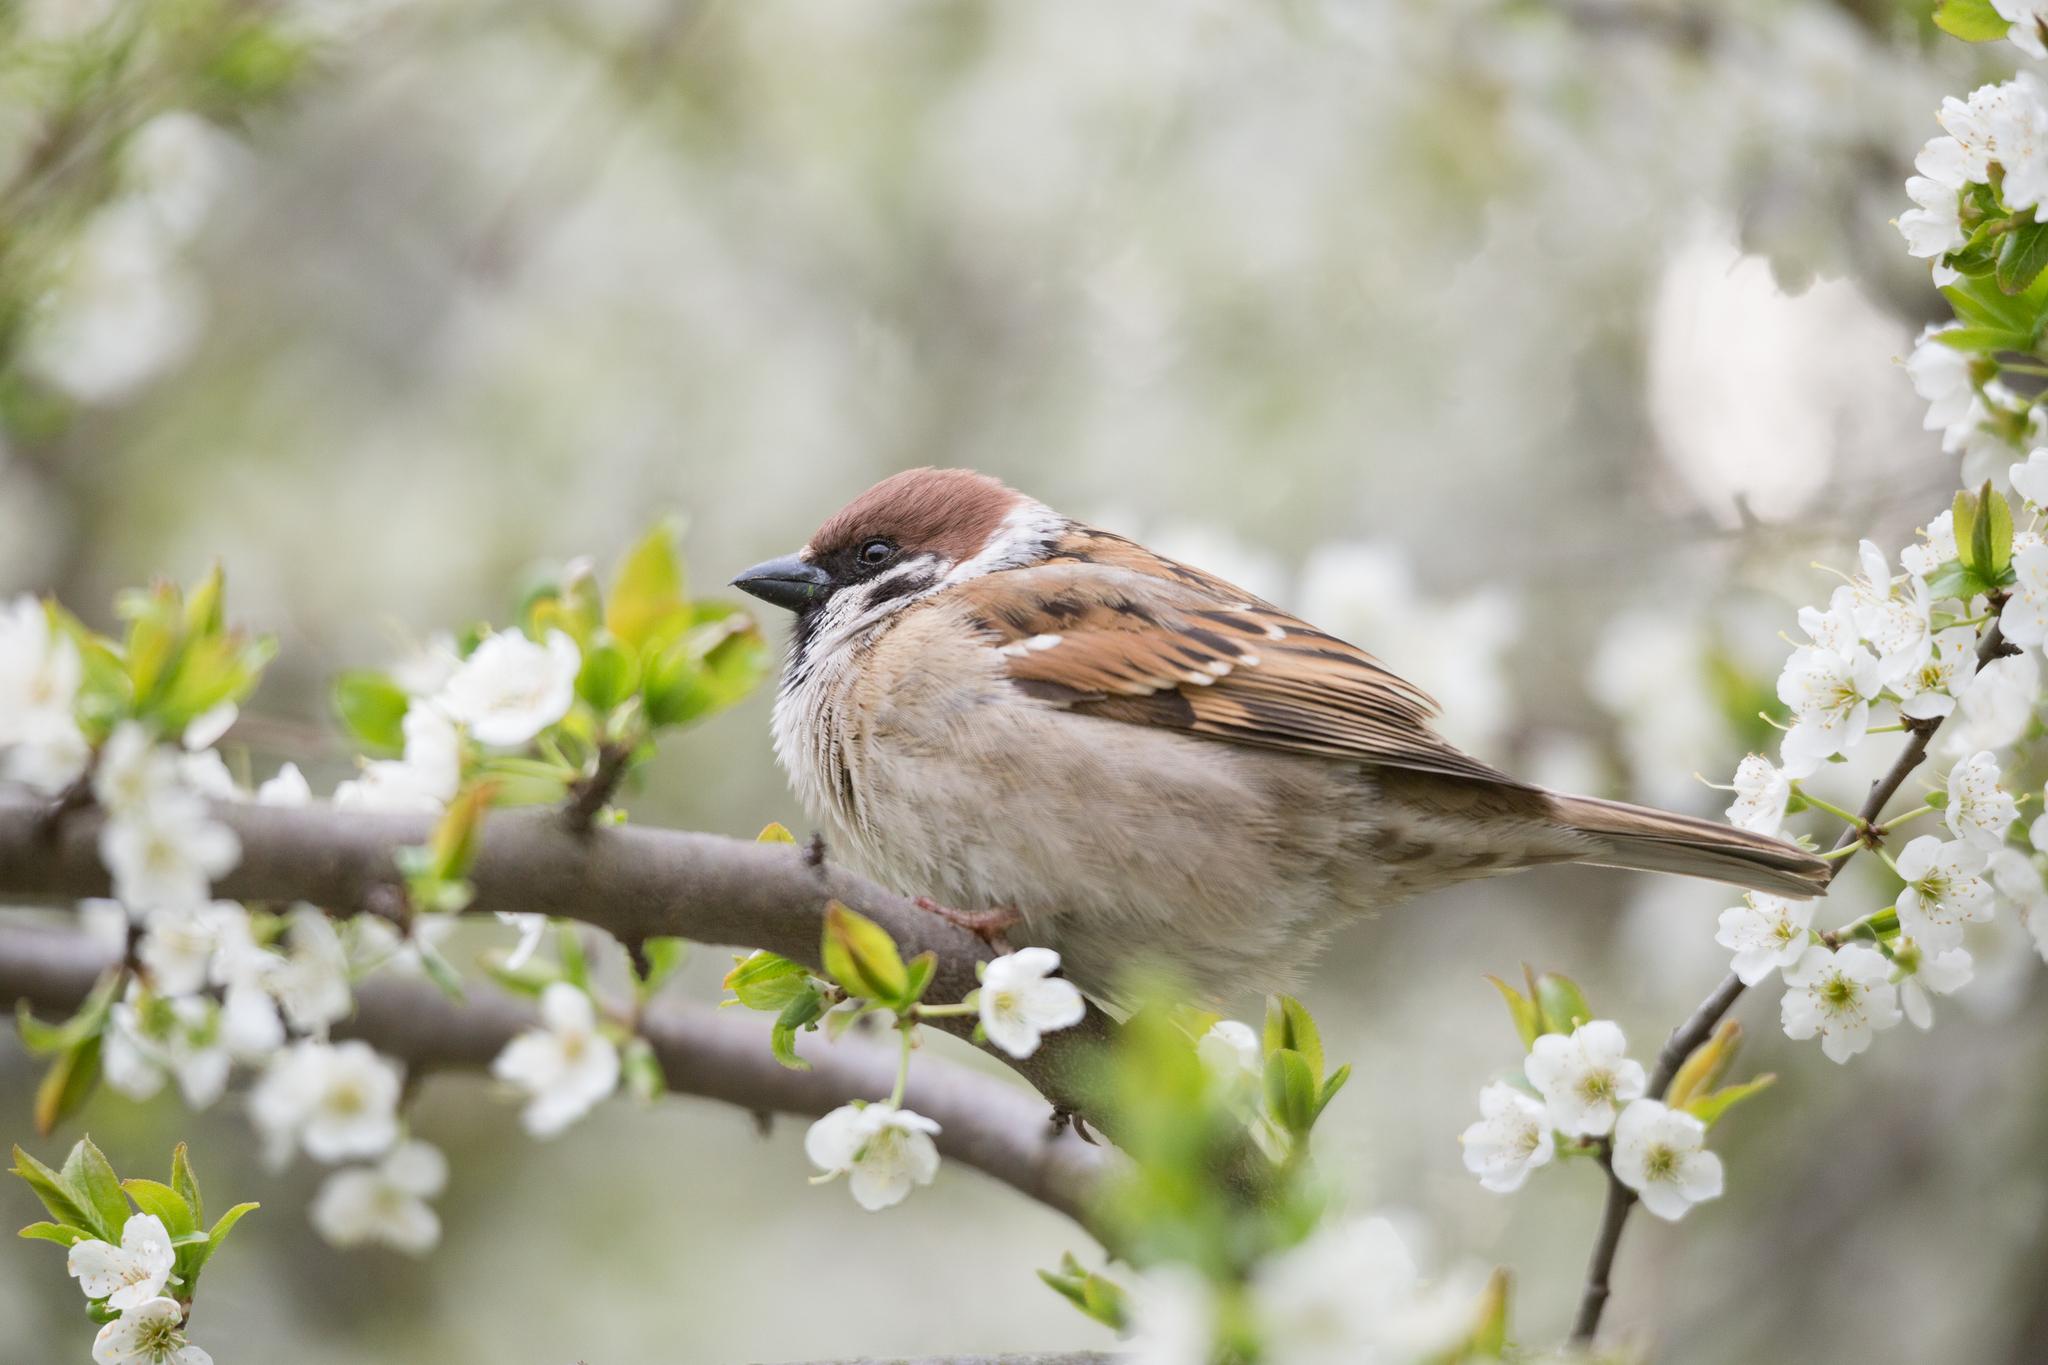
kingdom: Animalia
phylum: Chordata
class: Aves
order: Passeriformes
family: Passeridae
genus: Passer
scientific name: Passer montanus
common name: Eurasian tree sparrow
